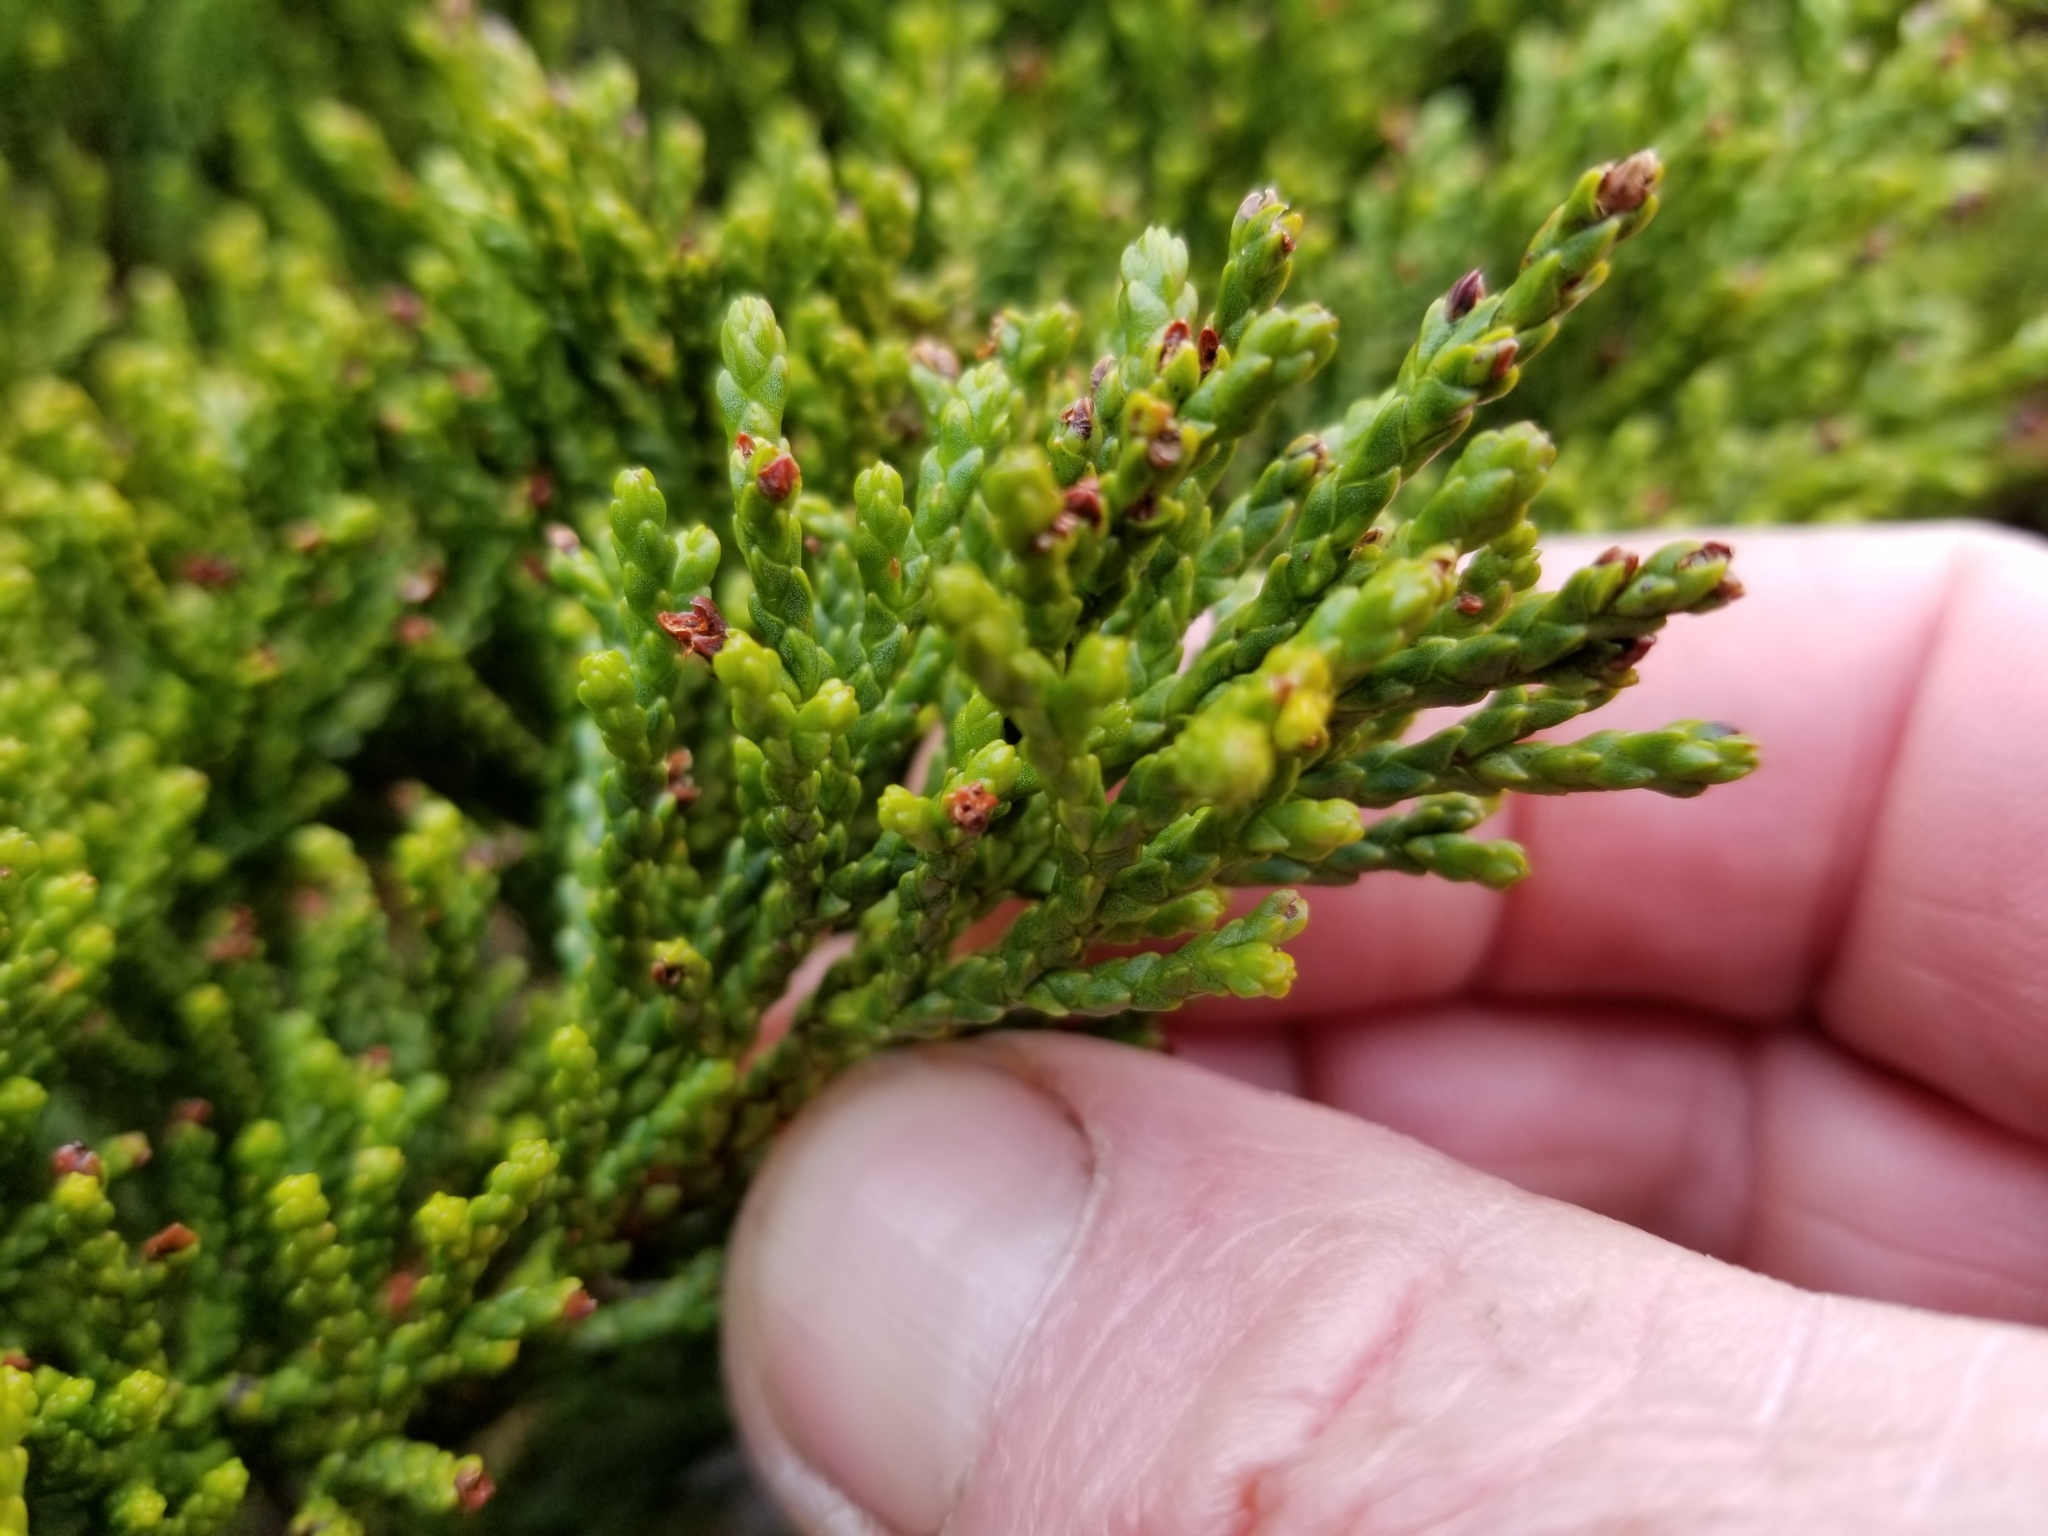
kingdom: Plantae
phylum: Tracheophyta
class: Pinopsida
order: Pinales
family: Podocarpaceae
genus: Halocarpus
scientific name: Halocarpus biformis
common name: Alpine tarwood
